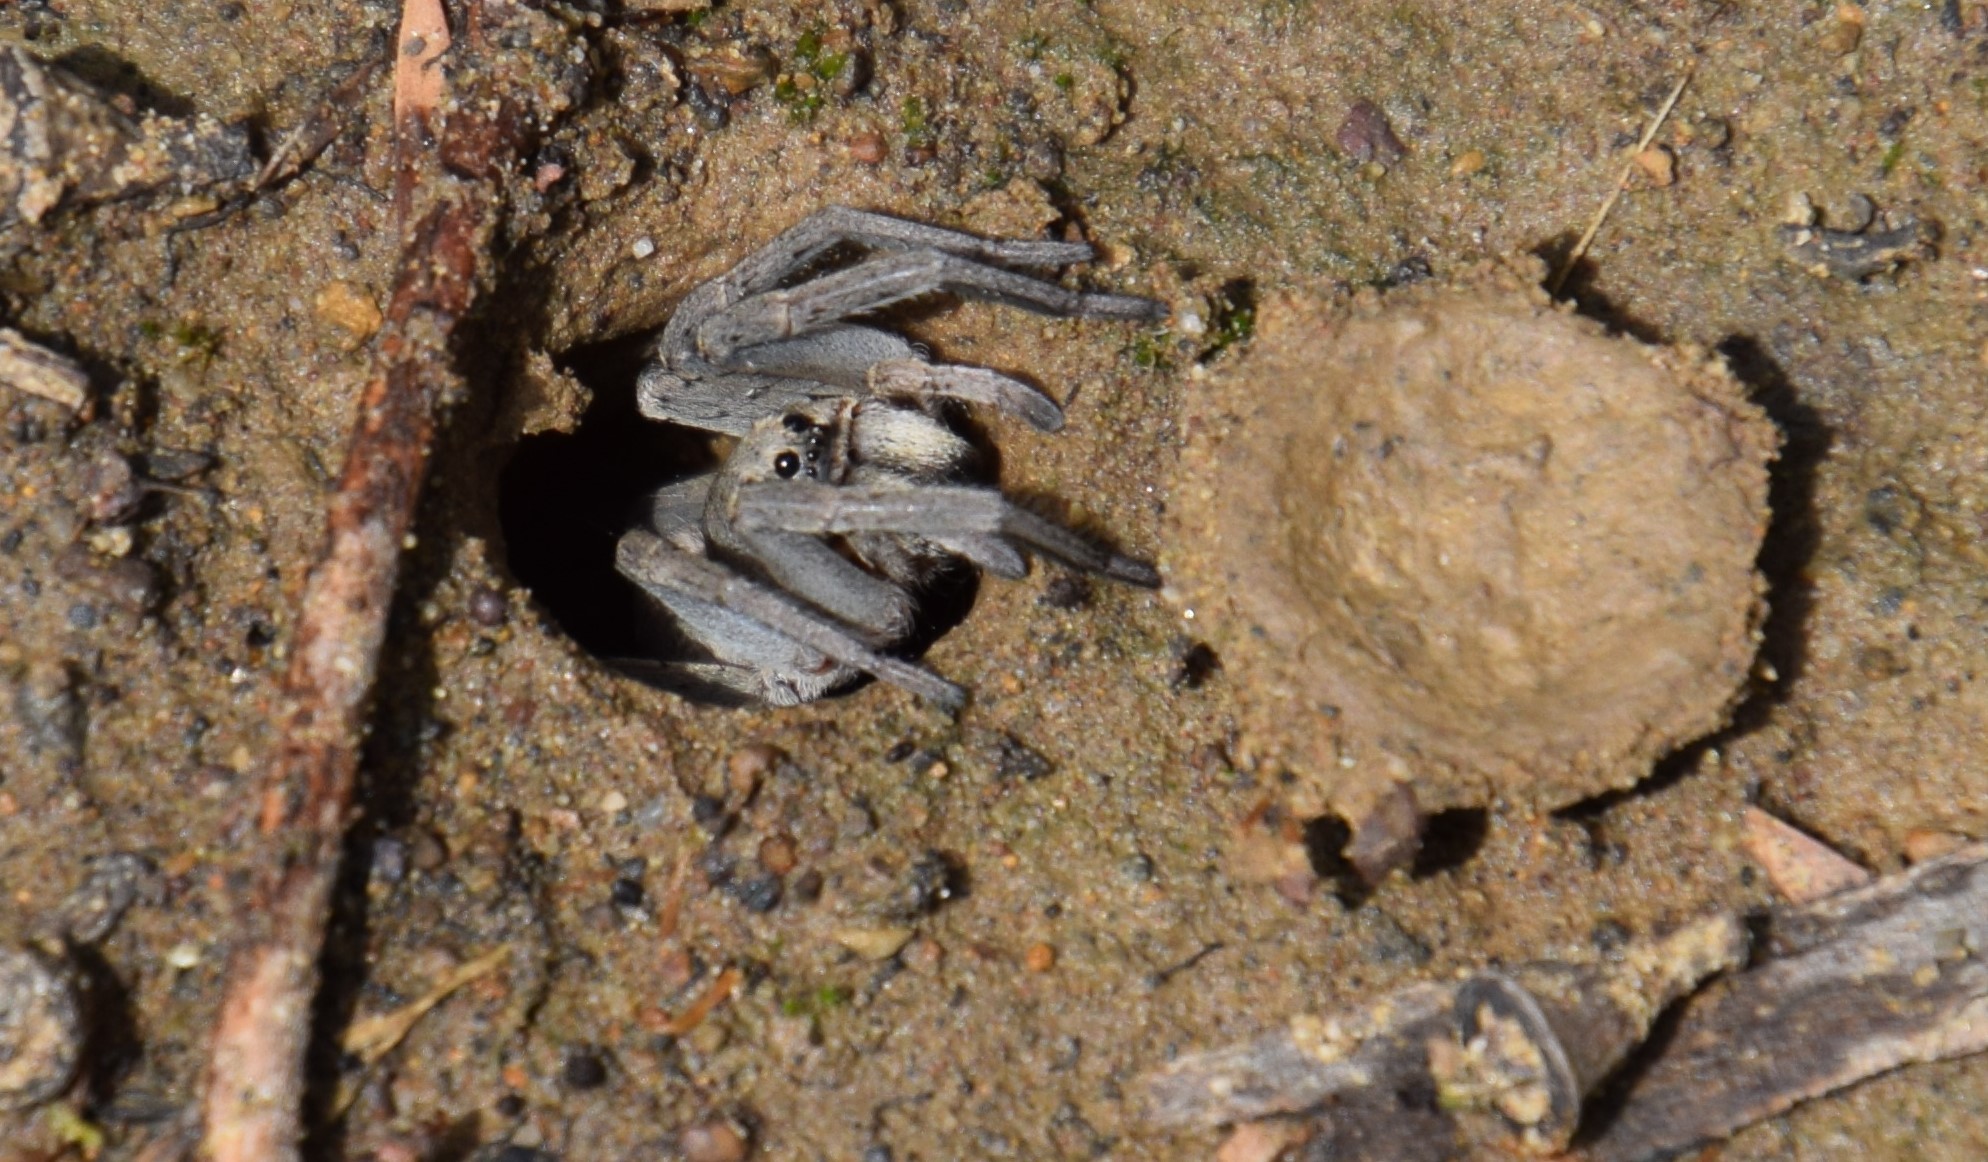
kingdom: Animalia
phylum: Arthropoda
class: Arachnida
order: Araneae
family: Lycosidae
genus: Portacosa
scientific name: Portacosa cinerea
